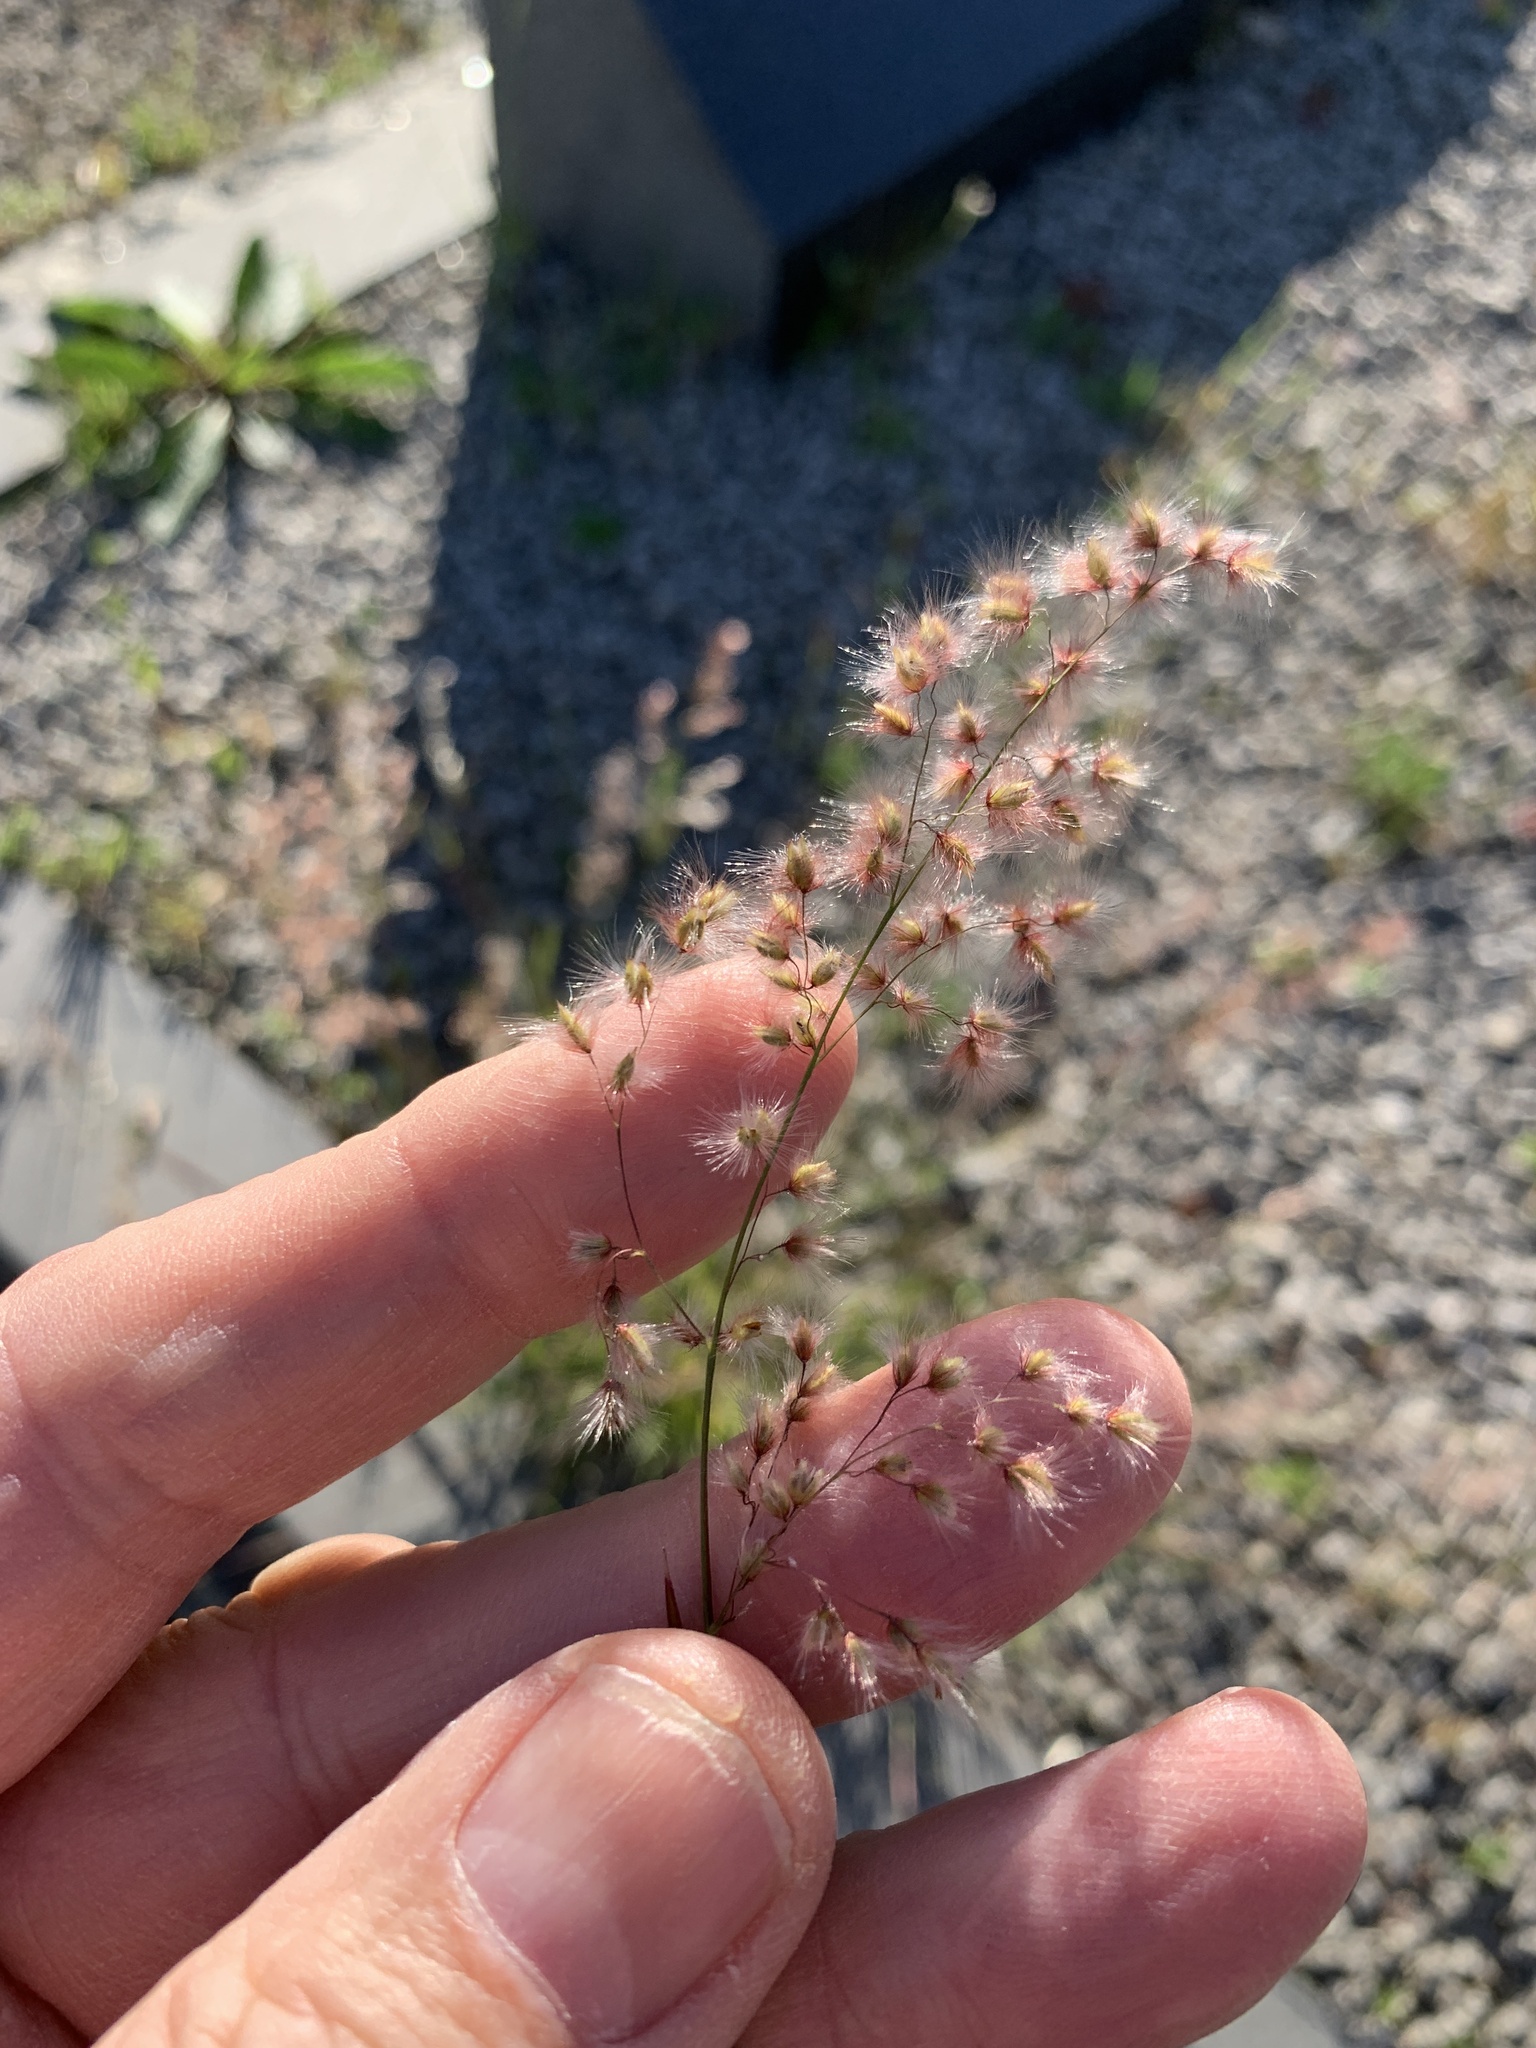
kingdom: Plantae
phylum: Tracheophyta
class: Liliopsida
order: Poales
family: Poaceae
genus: Melinis
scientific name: Melinis repens
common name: Rose natal grass
